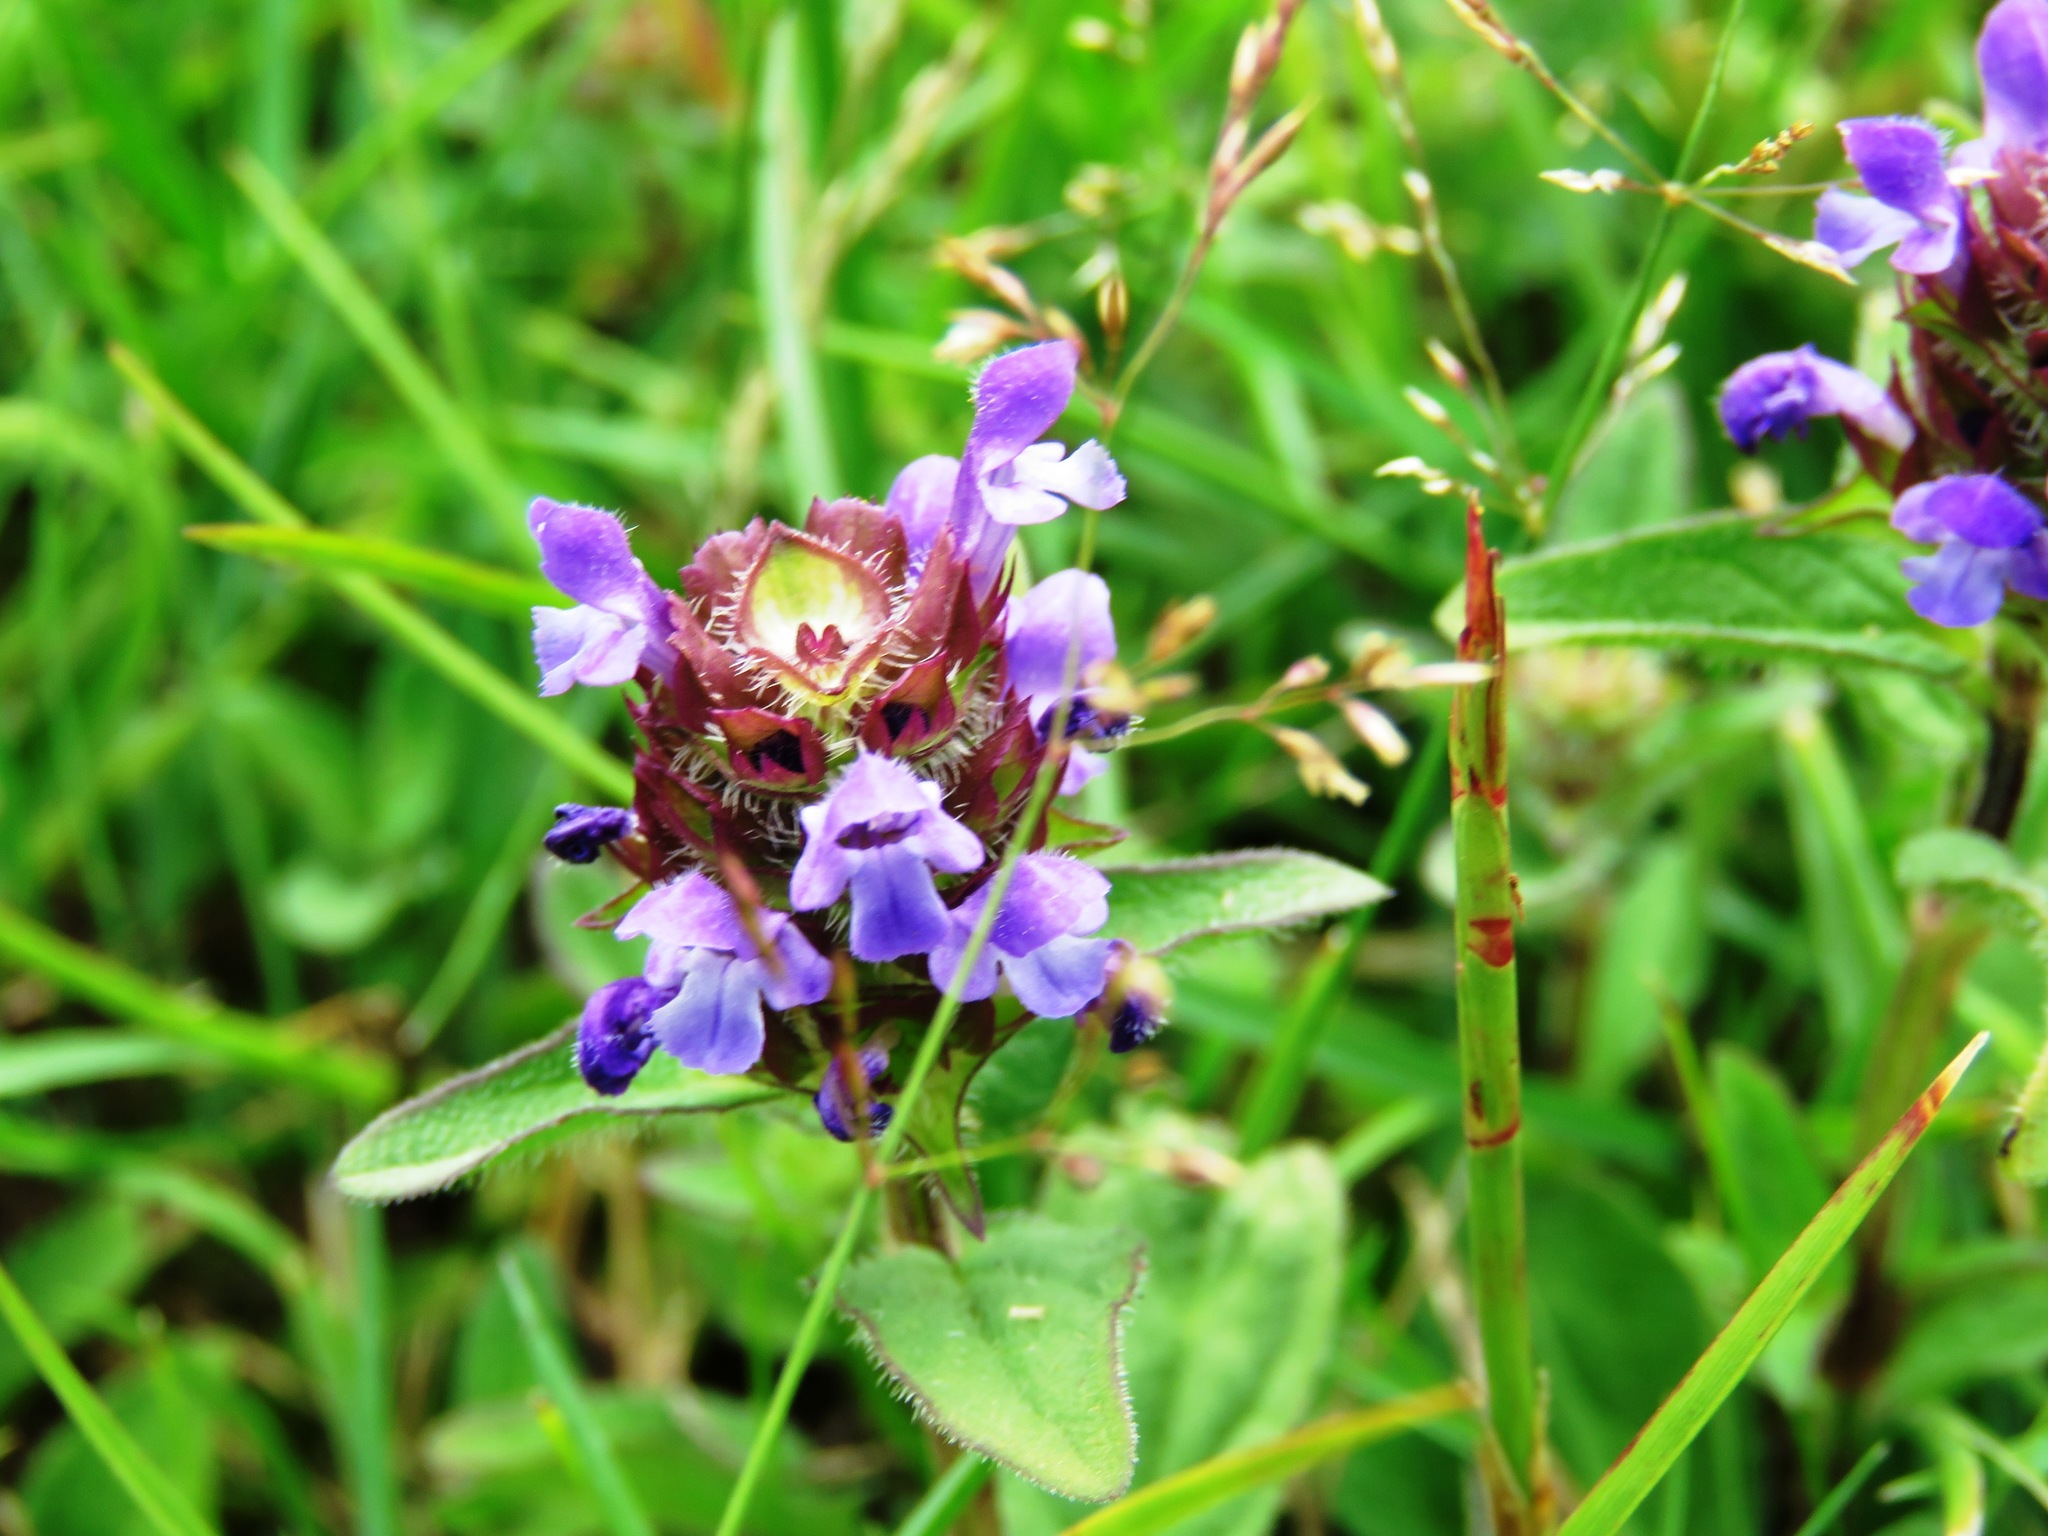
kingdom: Plantae
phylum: Tracheophyta
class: Magnoliopsida
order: Lamiales
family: Lamiaceae
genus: Prunella
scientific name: Prunella vulgaris
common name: Heal-all
